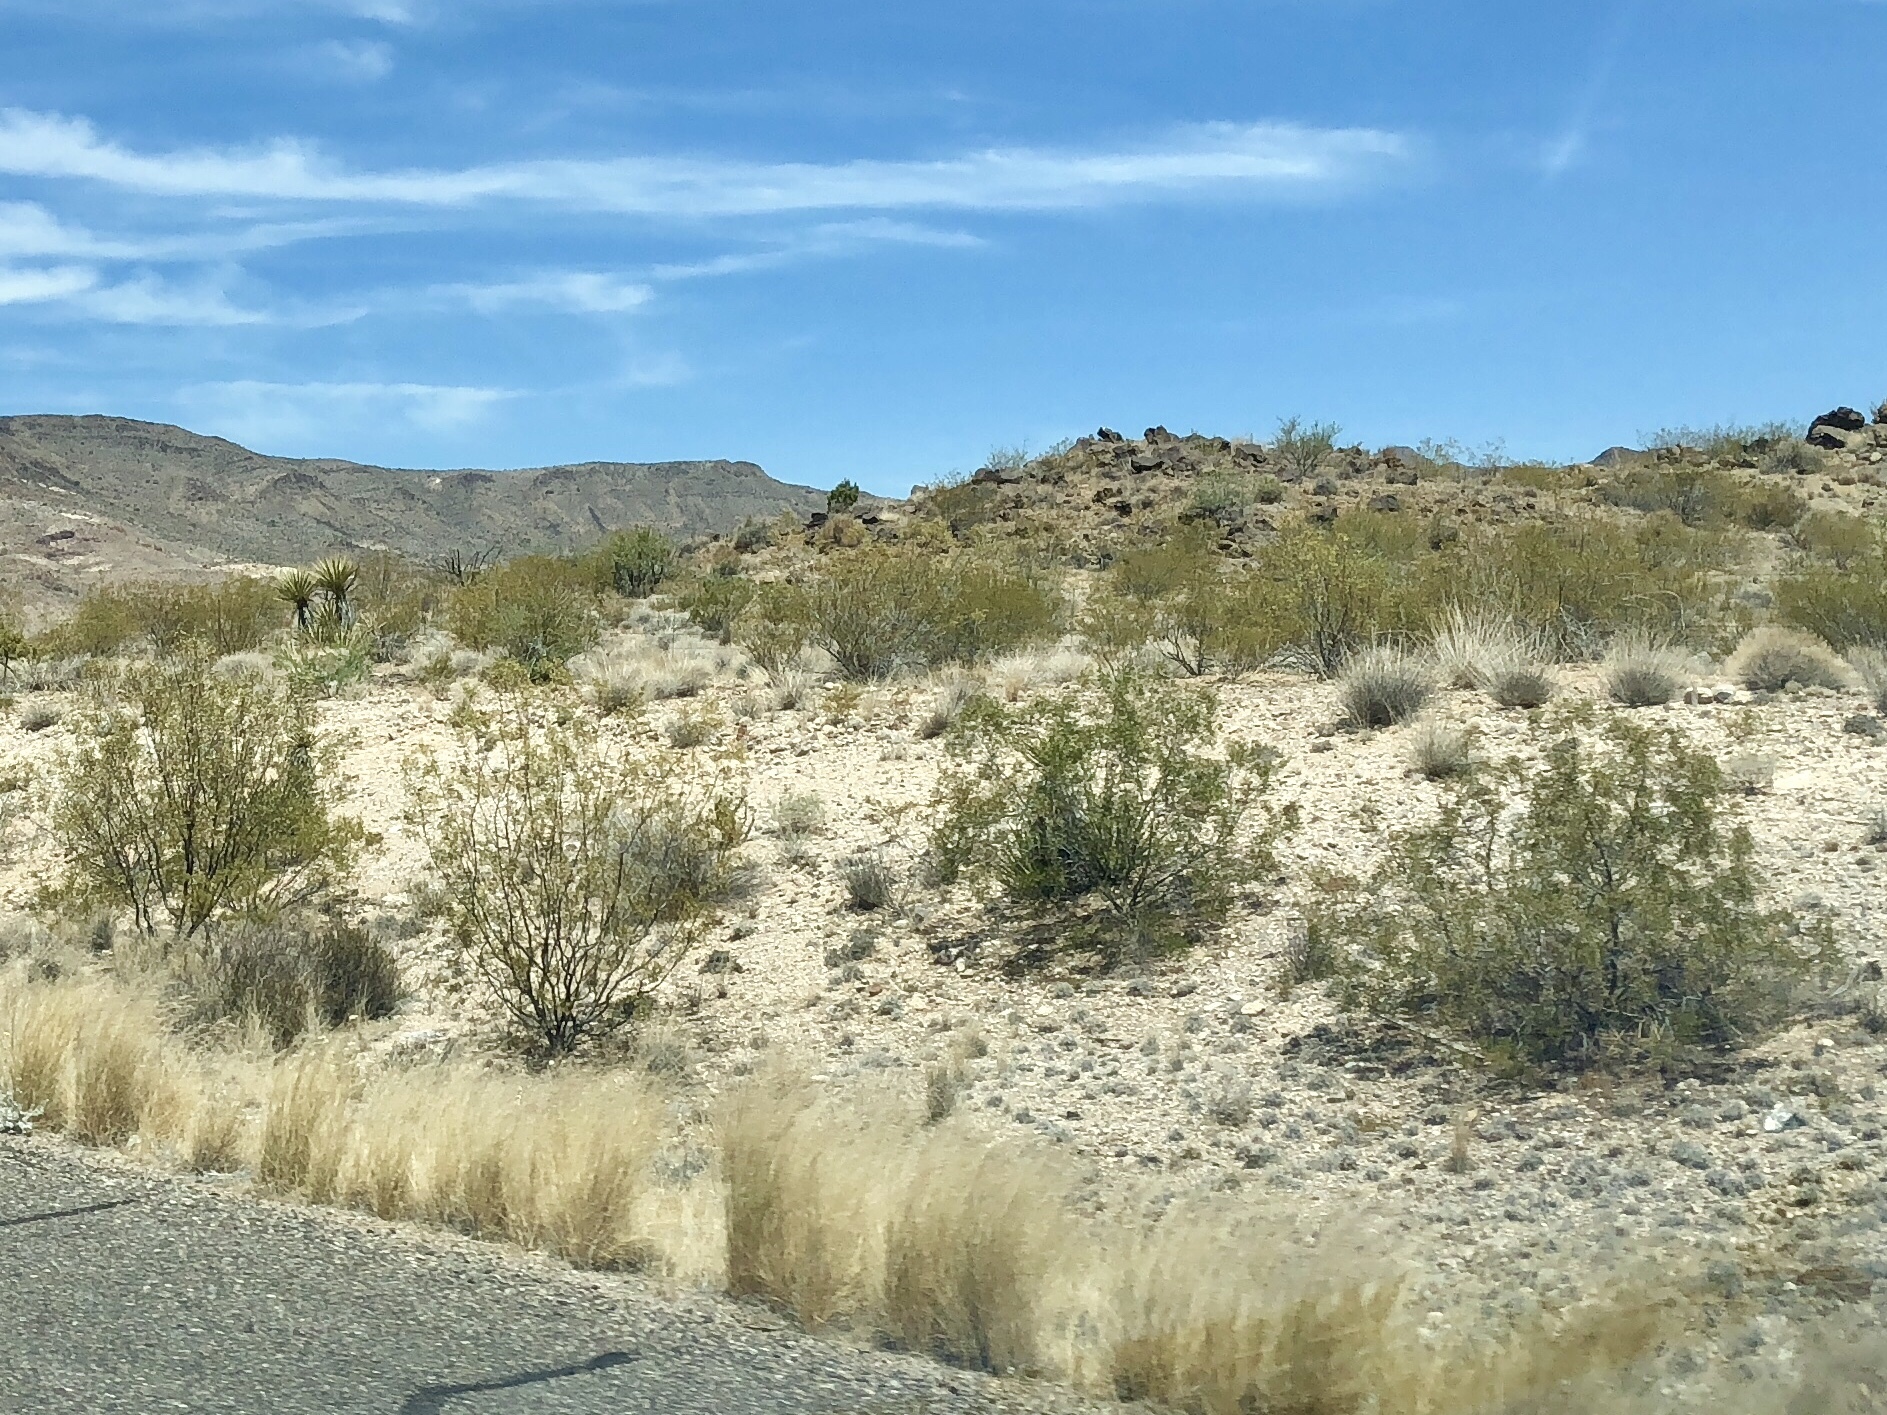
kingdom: Plantae
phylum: Tracheophyta
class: Magnoliopsida
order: Zygophyllales
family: Zygophyllaceae
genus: Larrea
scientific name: Larrea tridentata
